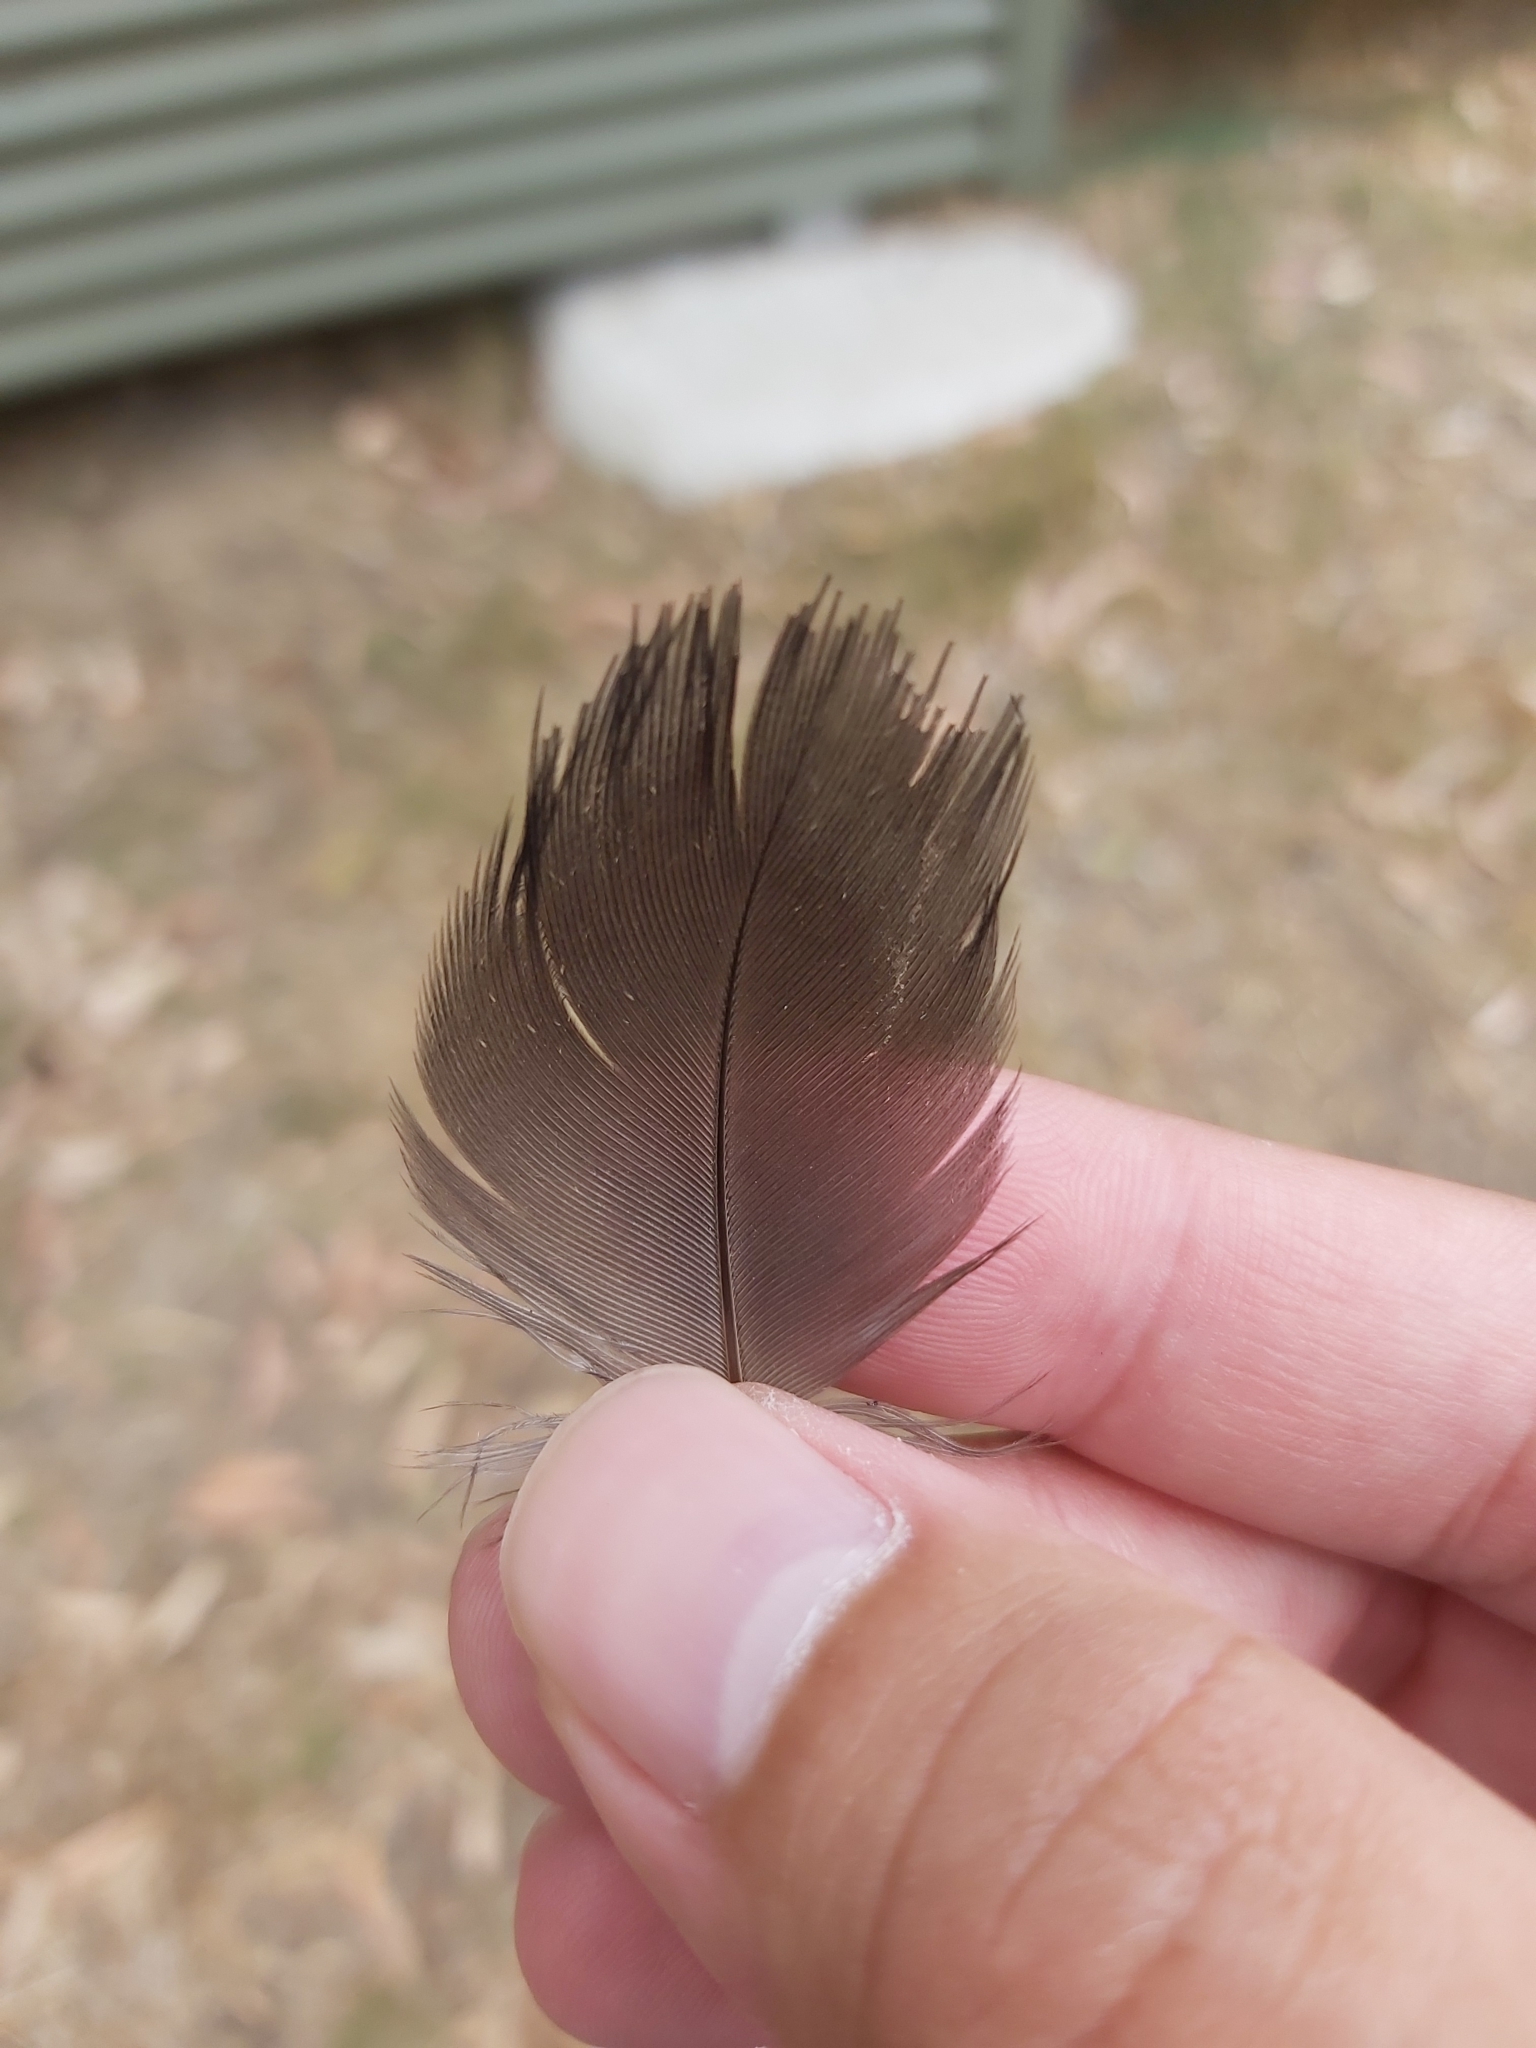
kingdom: Animalia
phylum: Chordata
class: Aves
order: Gruiformes
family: Rallidae
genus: Gallinula
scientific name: Gallinula tenebrosa
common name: Dusky moorhen
